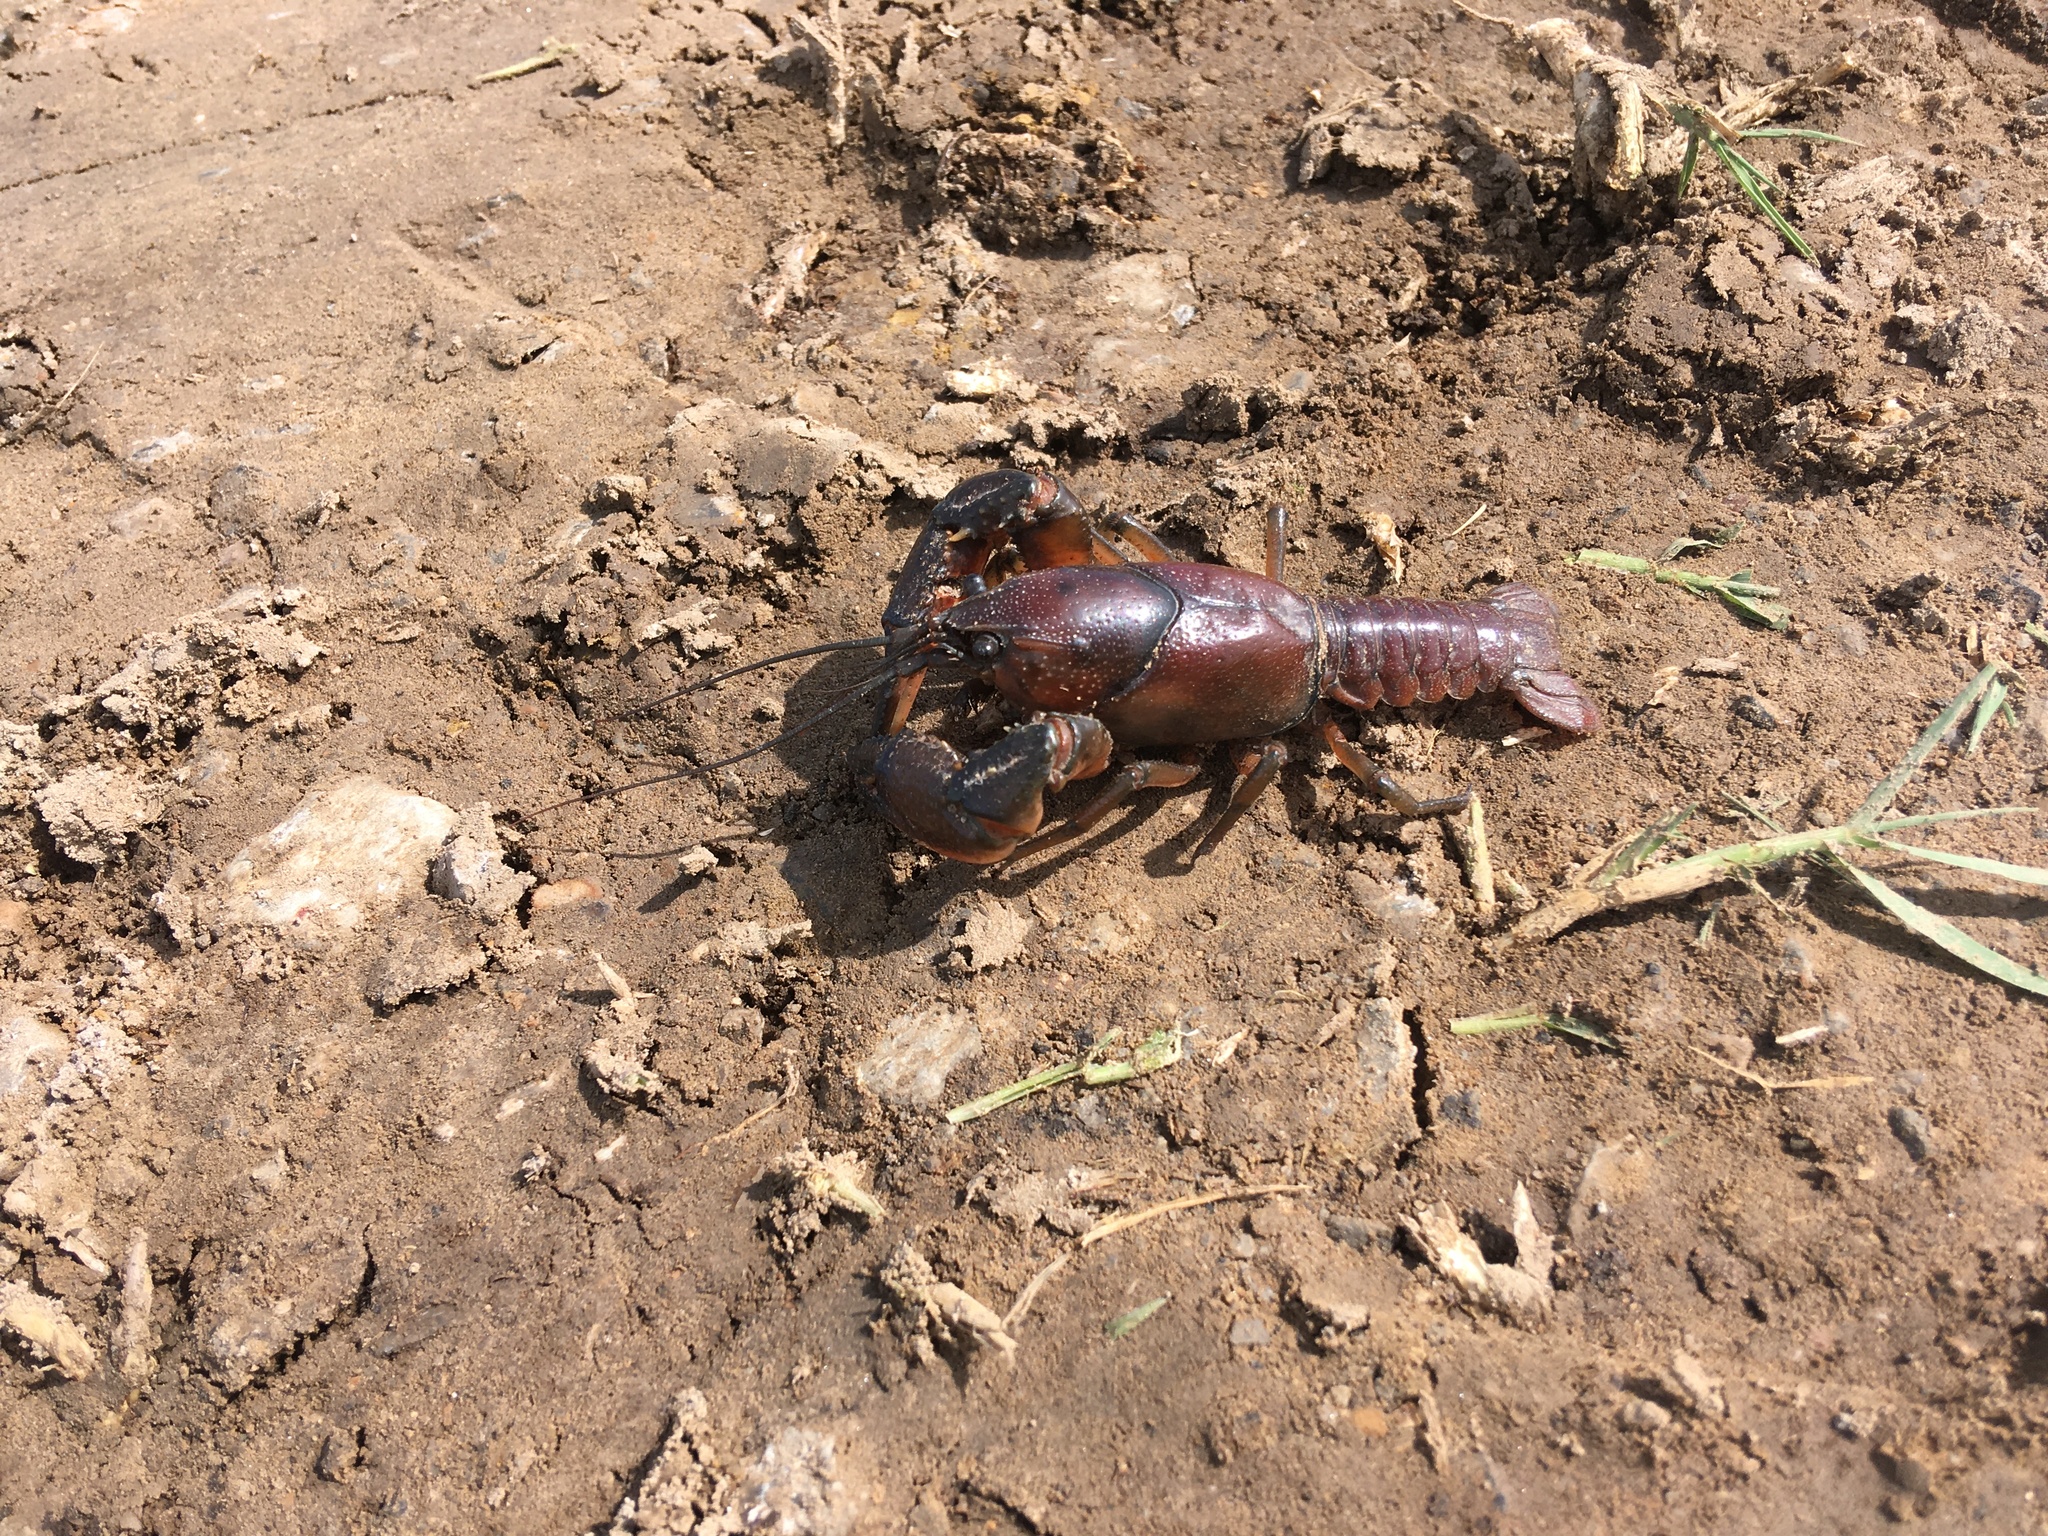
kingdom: Animalia
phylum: Arthropoda
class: Malacostraca
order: Decapoda
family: Cambaridae
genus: Procambarus
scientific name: Procambarus liberorum
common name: Osage burrowing crayfish
